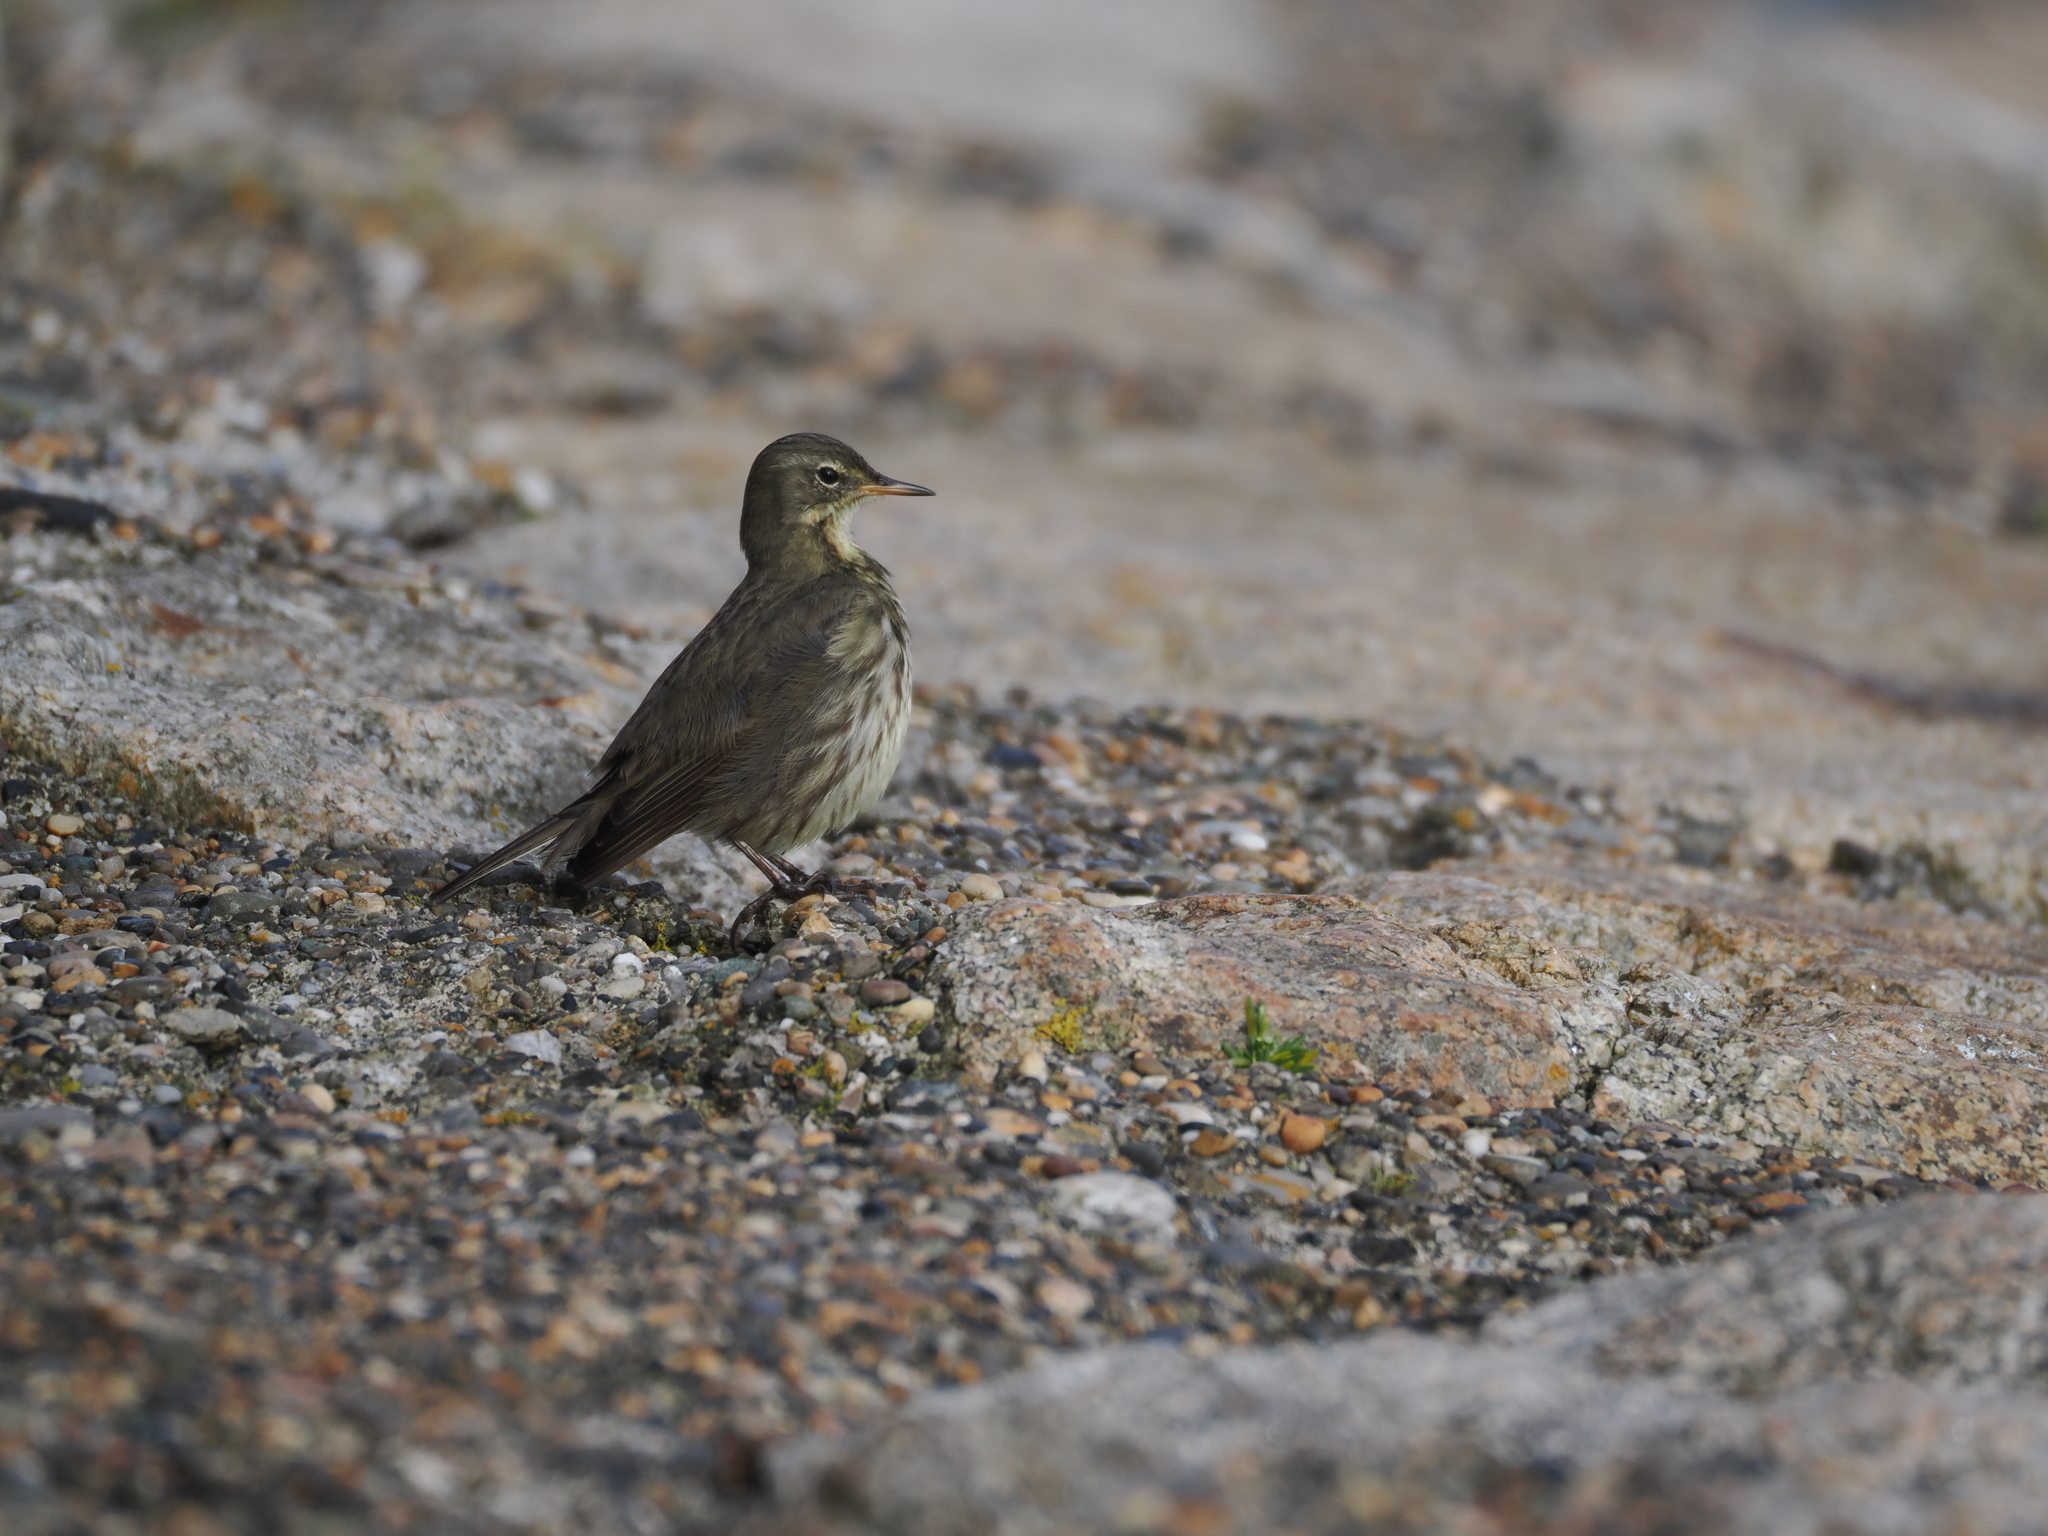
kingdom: Animalia
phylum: Chordata
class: Aves
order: Passeriformes
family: Motacillidae
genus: Anthus
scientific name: Anthus petrosus
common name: Eurasian rock pipit
